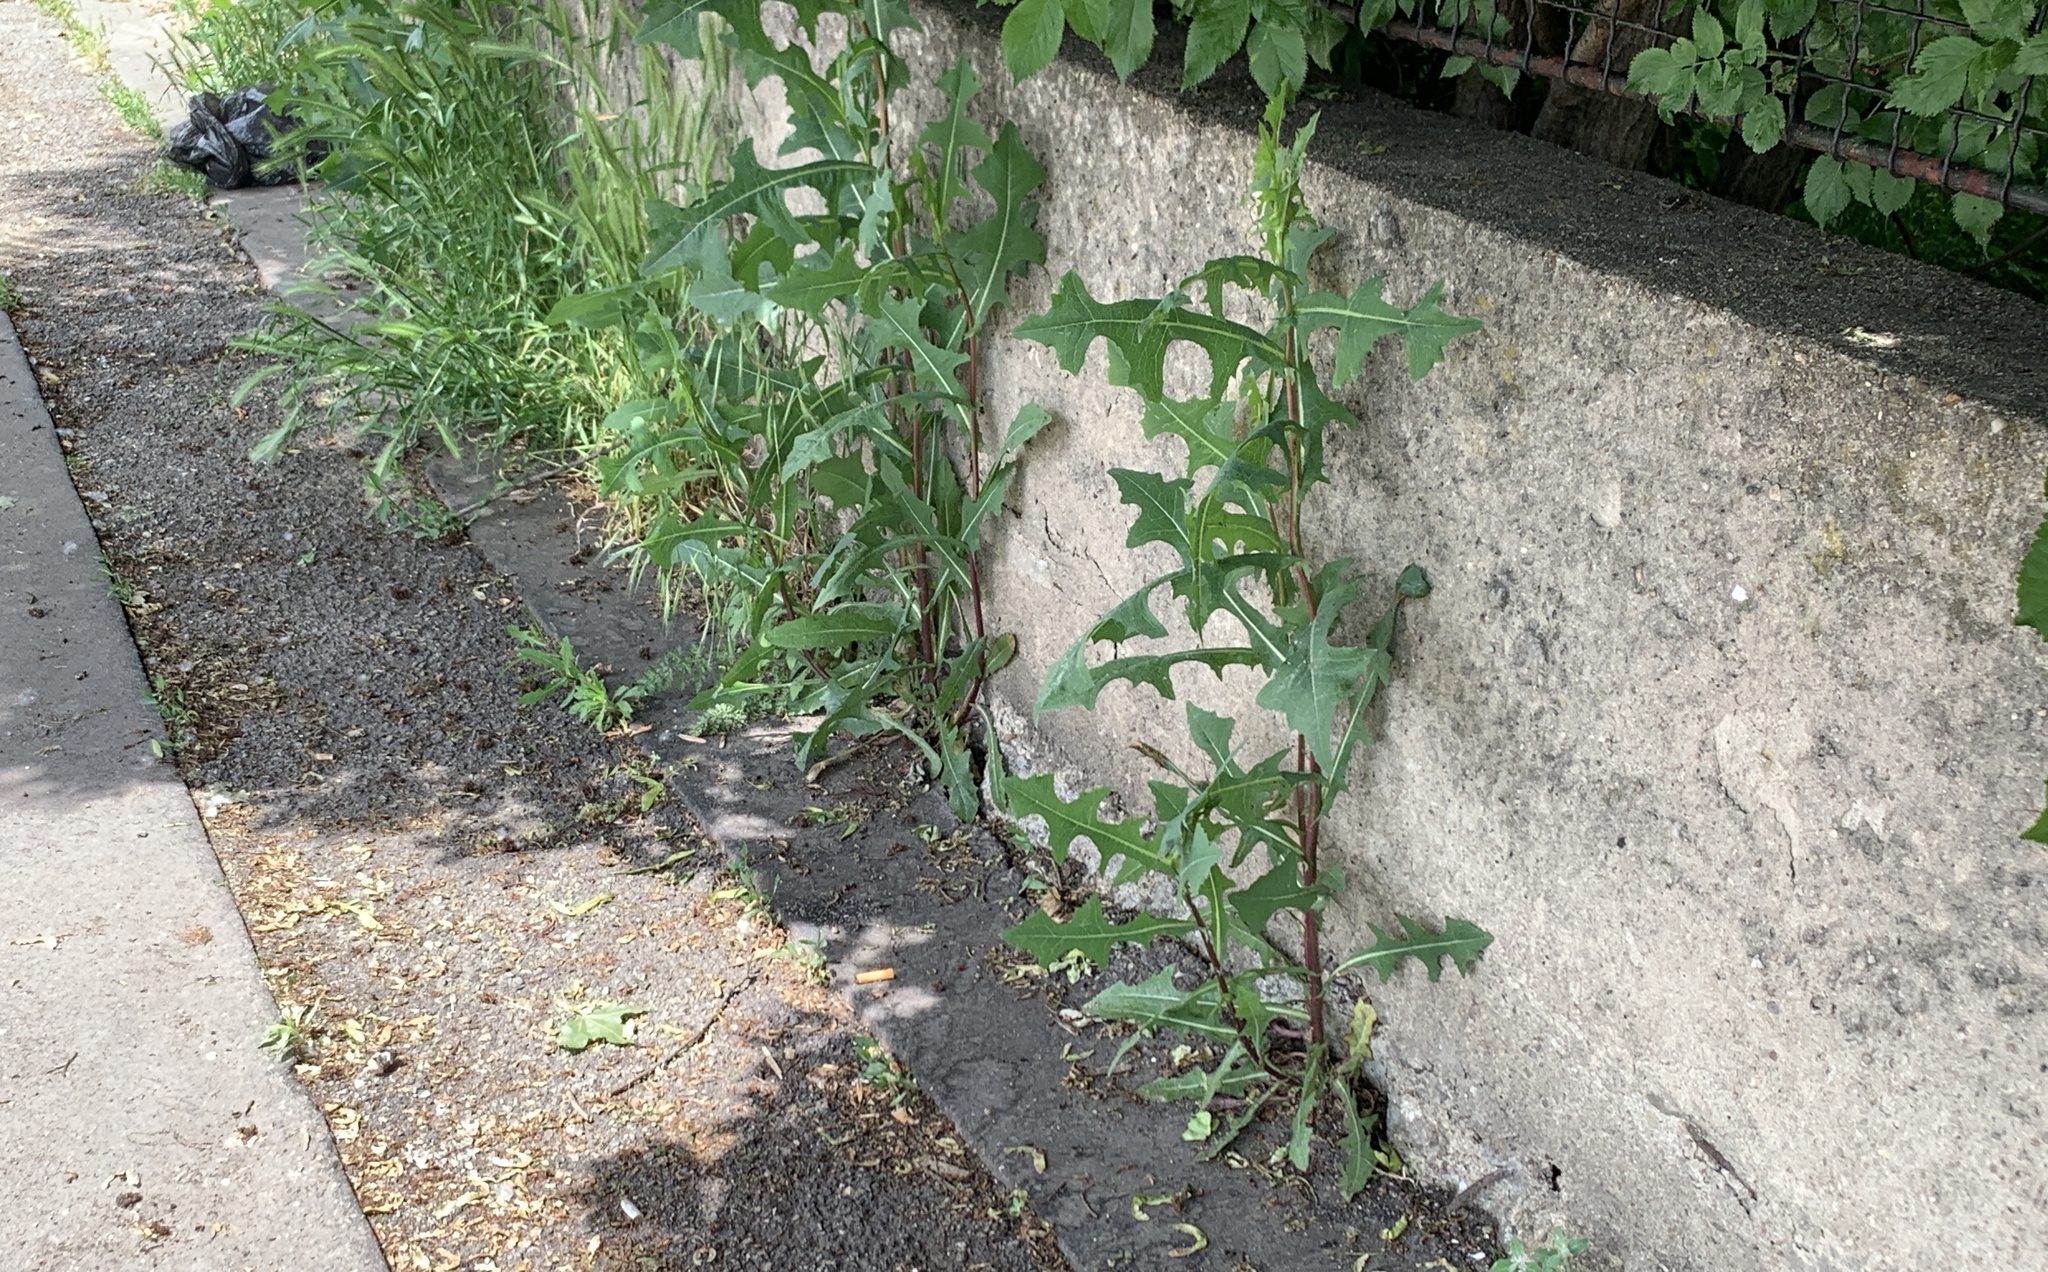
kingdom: Plantae
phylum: Tracheophyta
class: Magnoliopsida
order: Asterales
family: Asteraceae
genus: Lactuca
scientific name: Lactuca serriola
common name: Prickly lettuce
